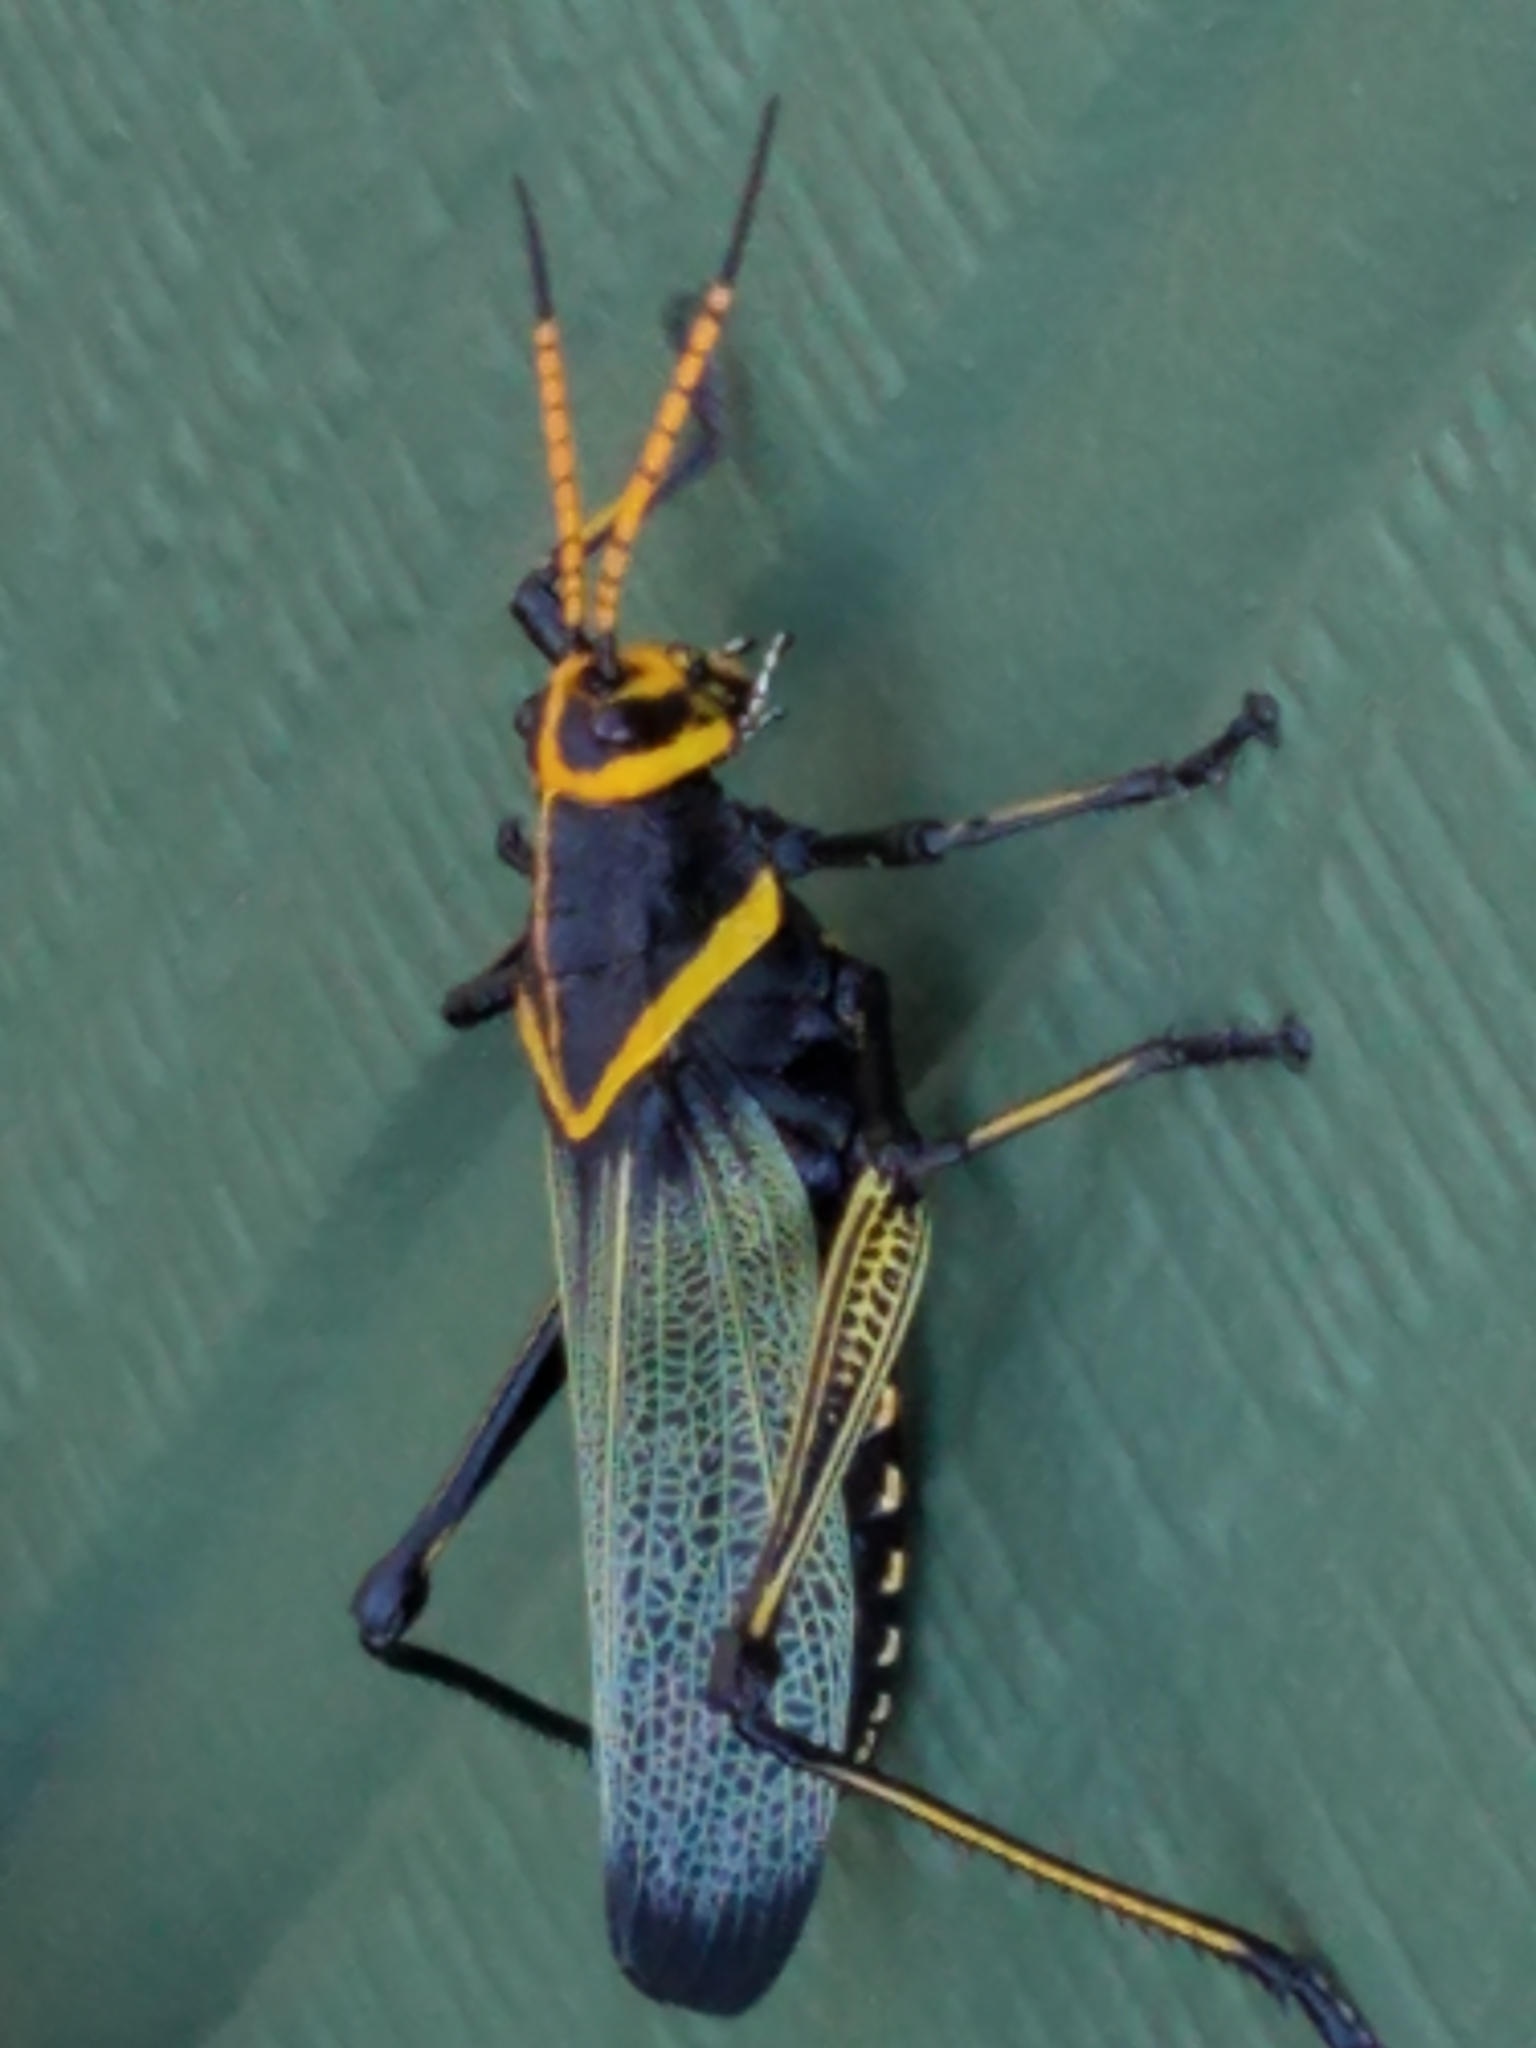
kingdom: Animalia
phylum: Arthropoda
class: Insecta
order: Orthoptera
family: Romaleidae
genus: Romalea
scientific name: Romalea
